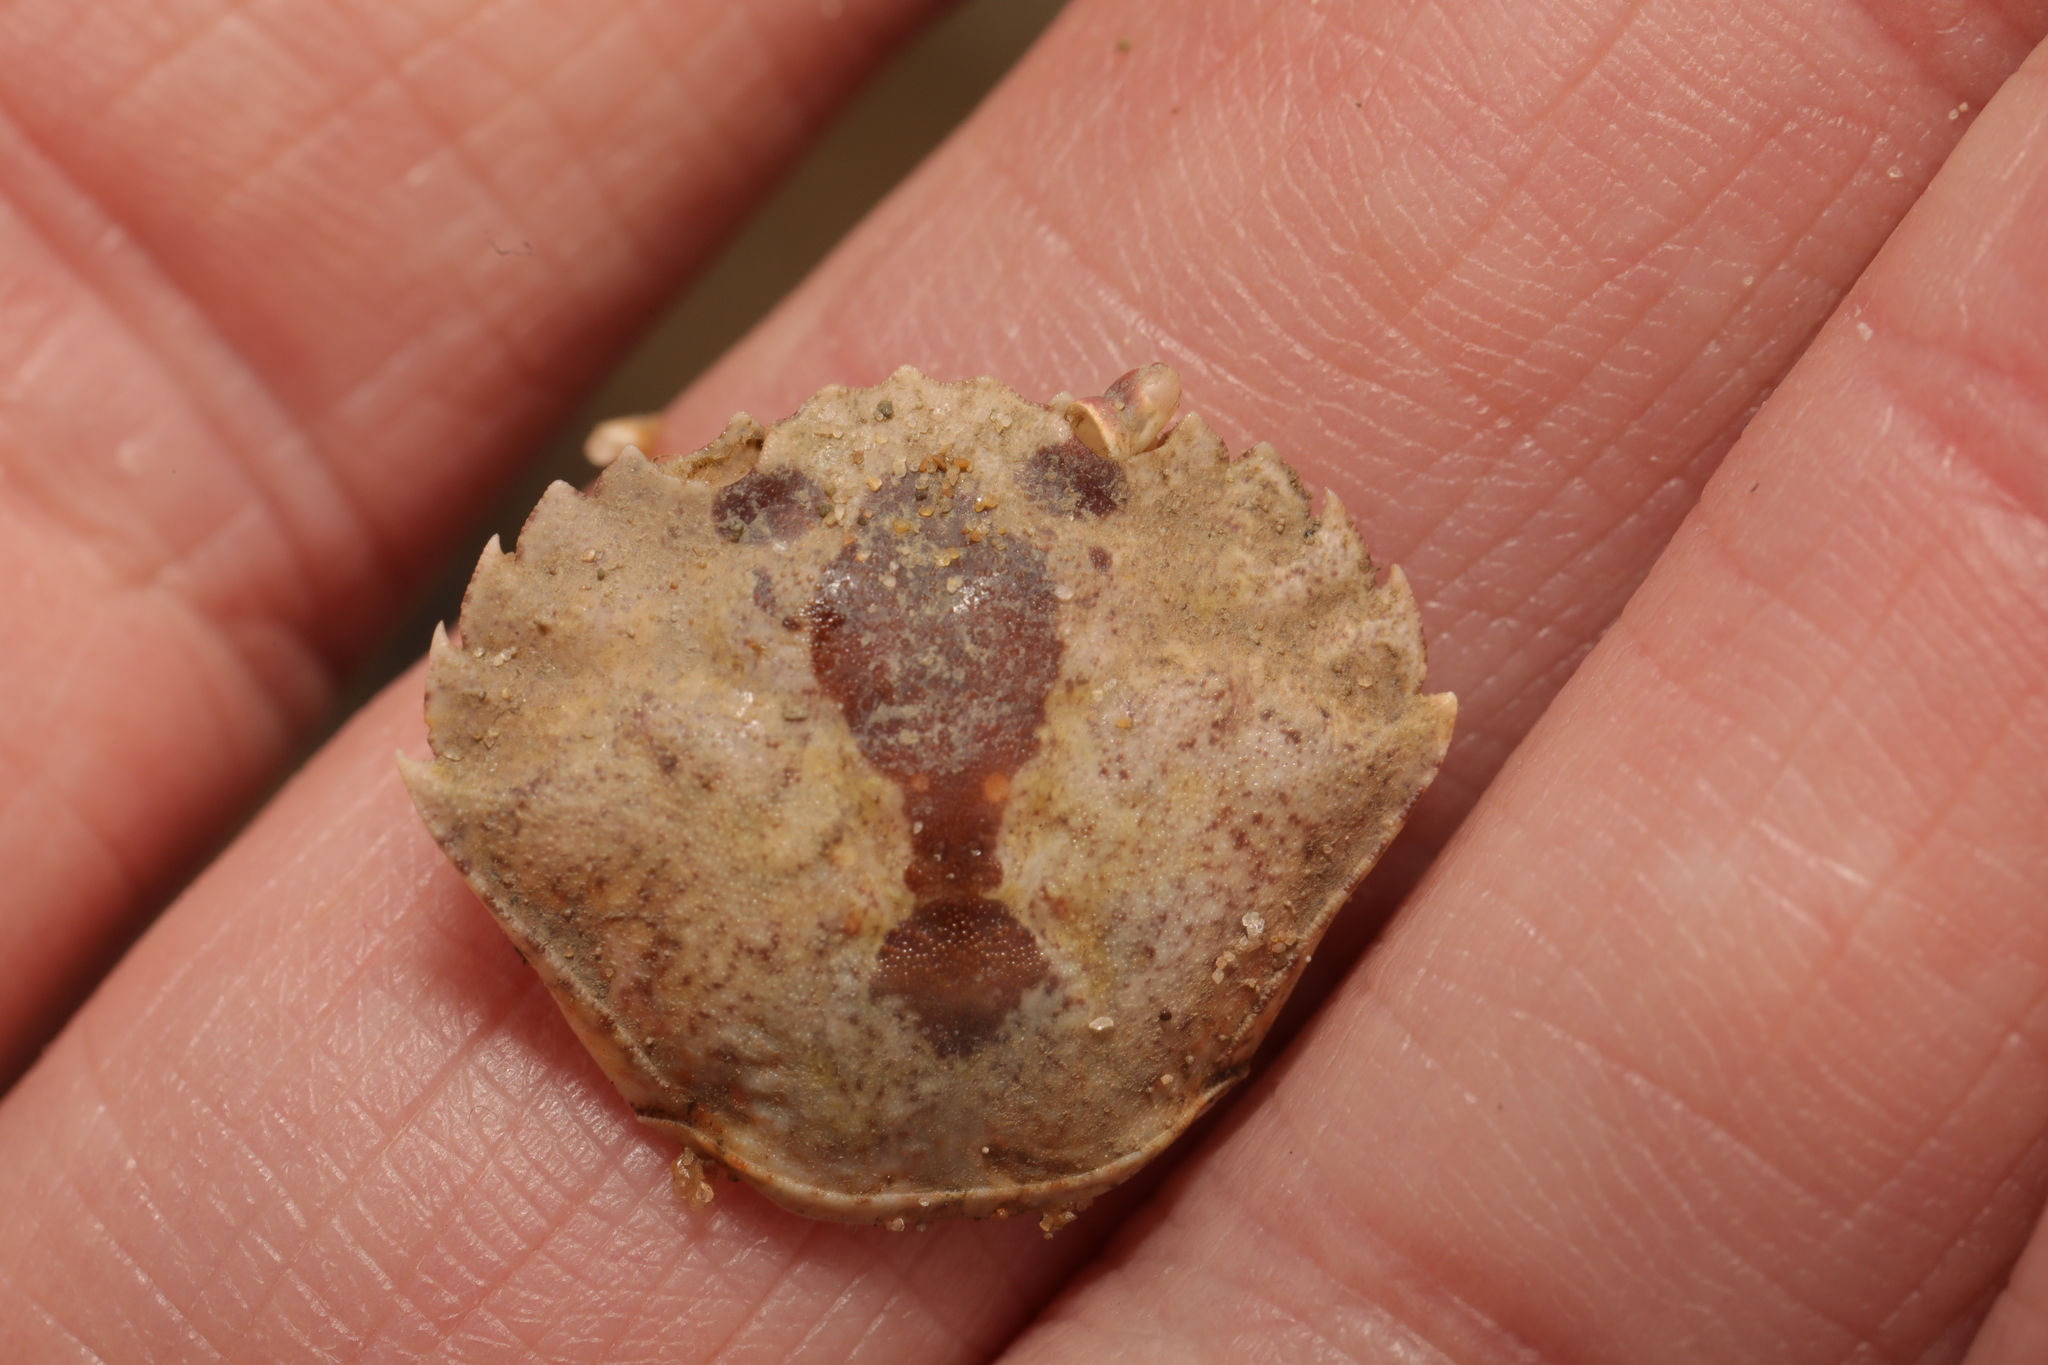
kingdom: Animalia
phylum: Arthropoda
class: Malacostraca
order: Decapoda
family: Carcinidae
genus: Carcinus
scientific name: Carcinus maenas
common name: European green crab
